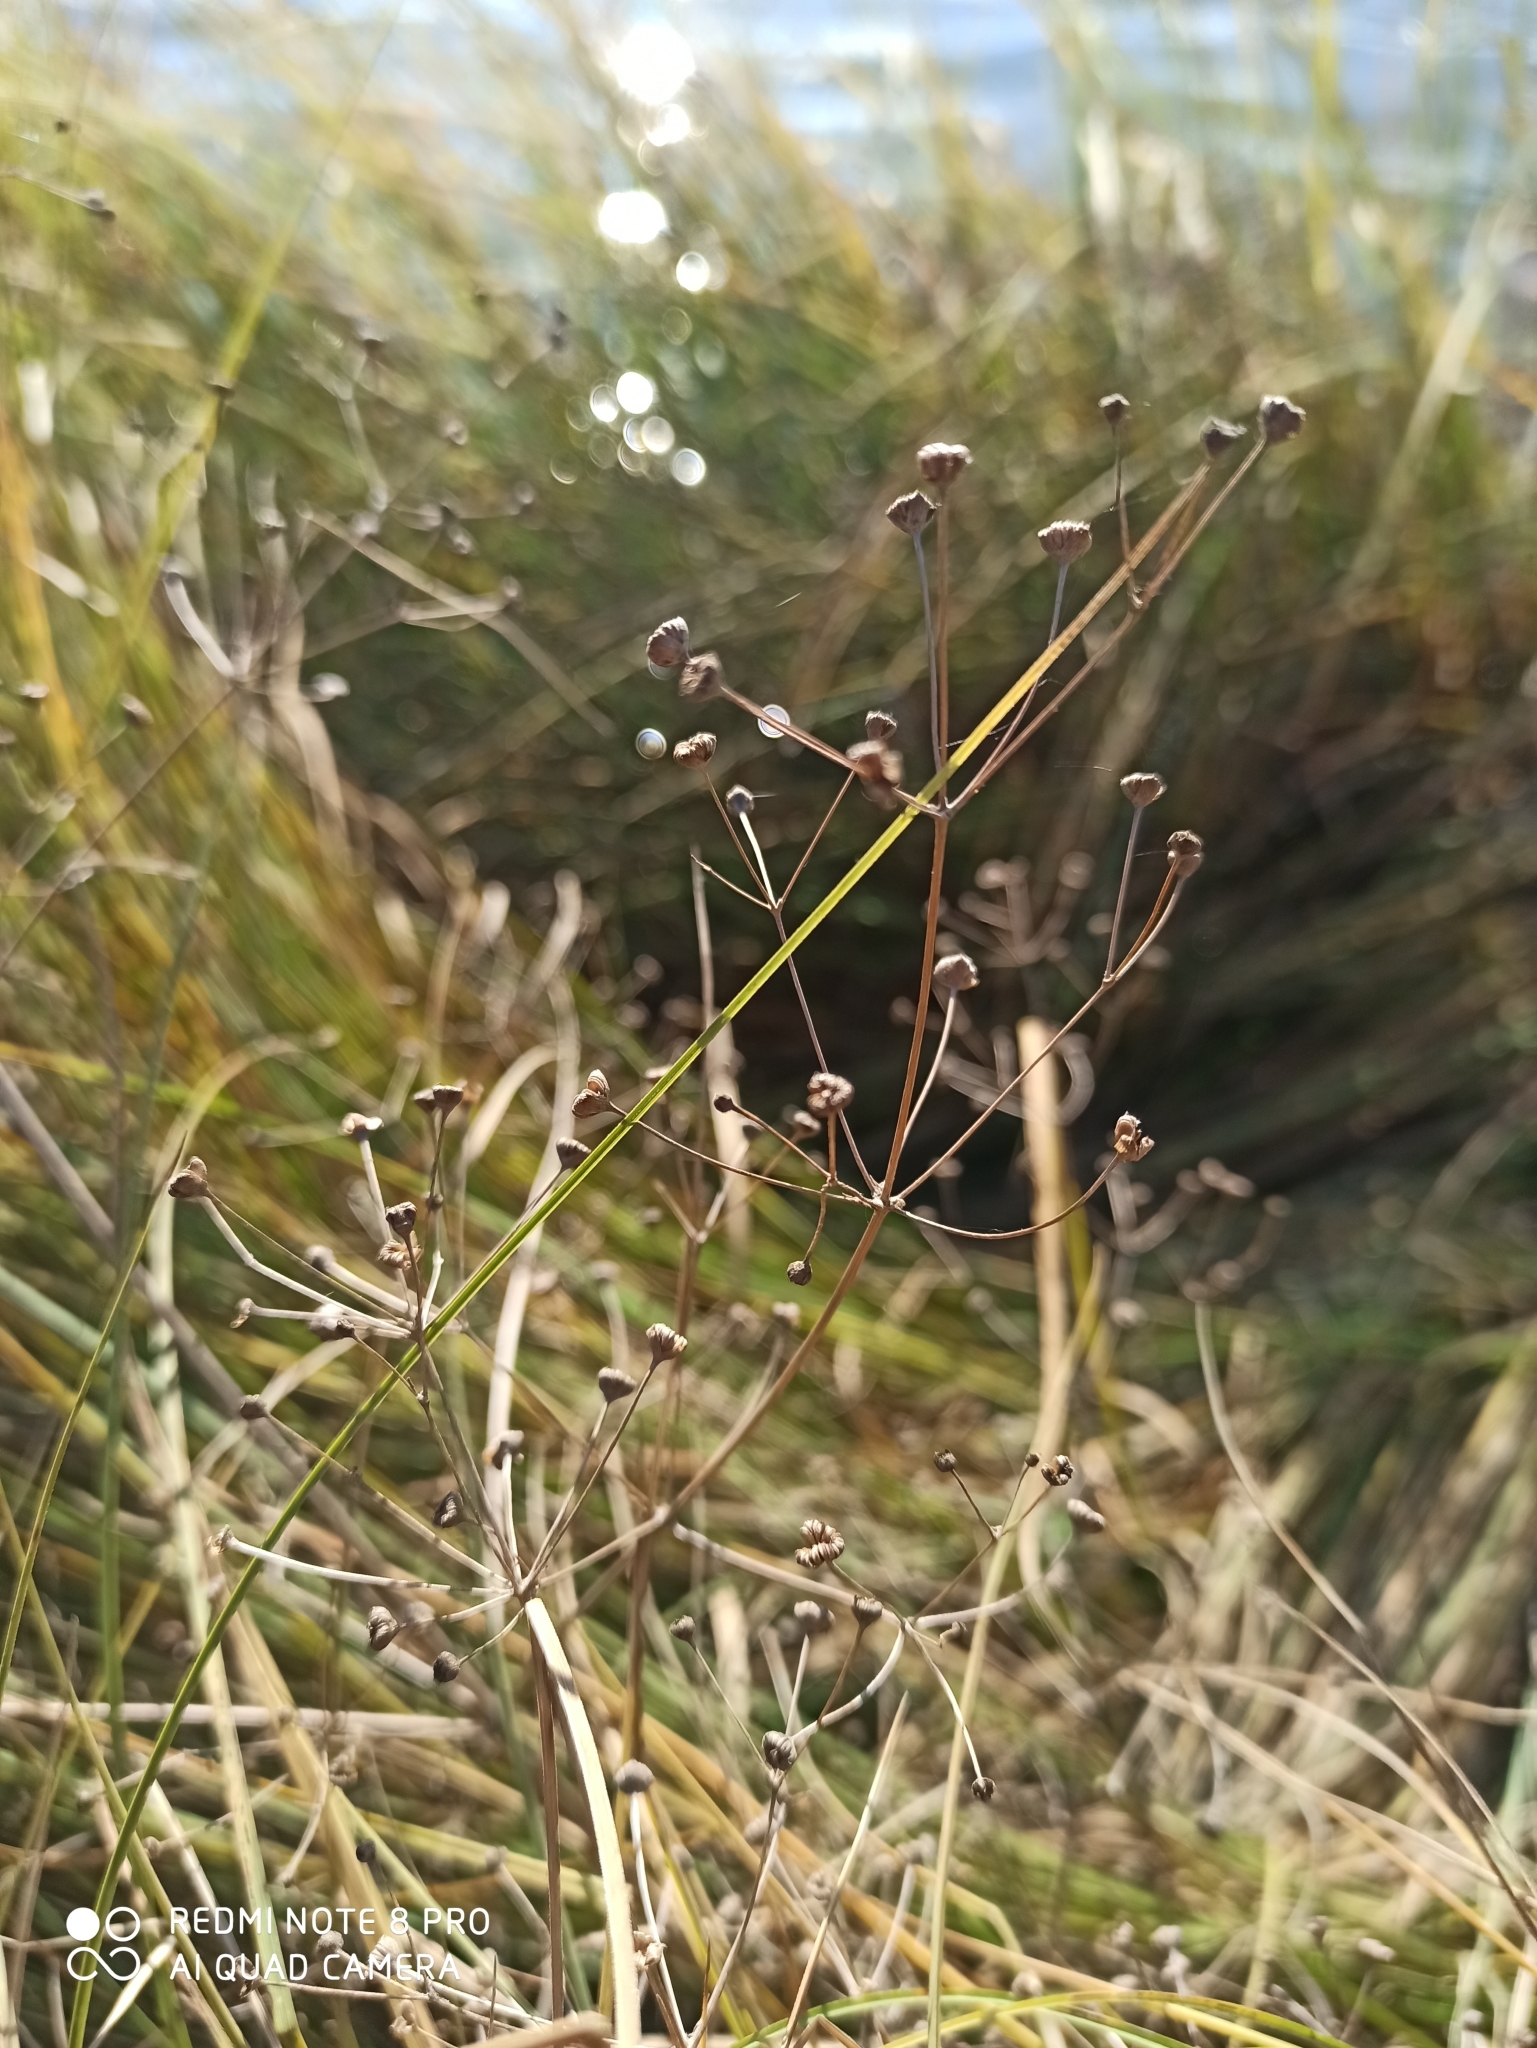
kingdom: Plantae
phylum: Tracheophyta
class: Liliopsida
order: Alismatales
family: Alismataceae
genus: Alisma
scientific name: Alisma plantago-aquatica
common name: Water-plantain
